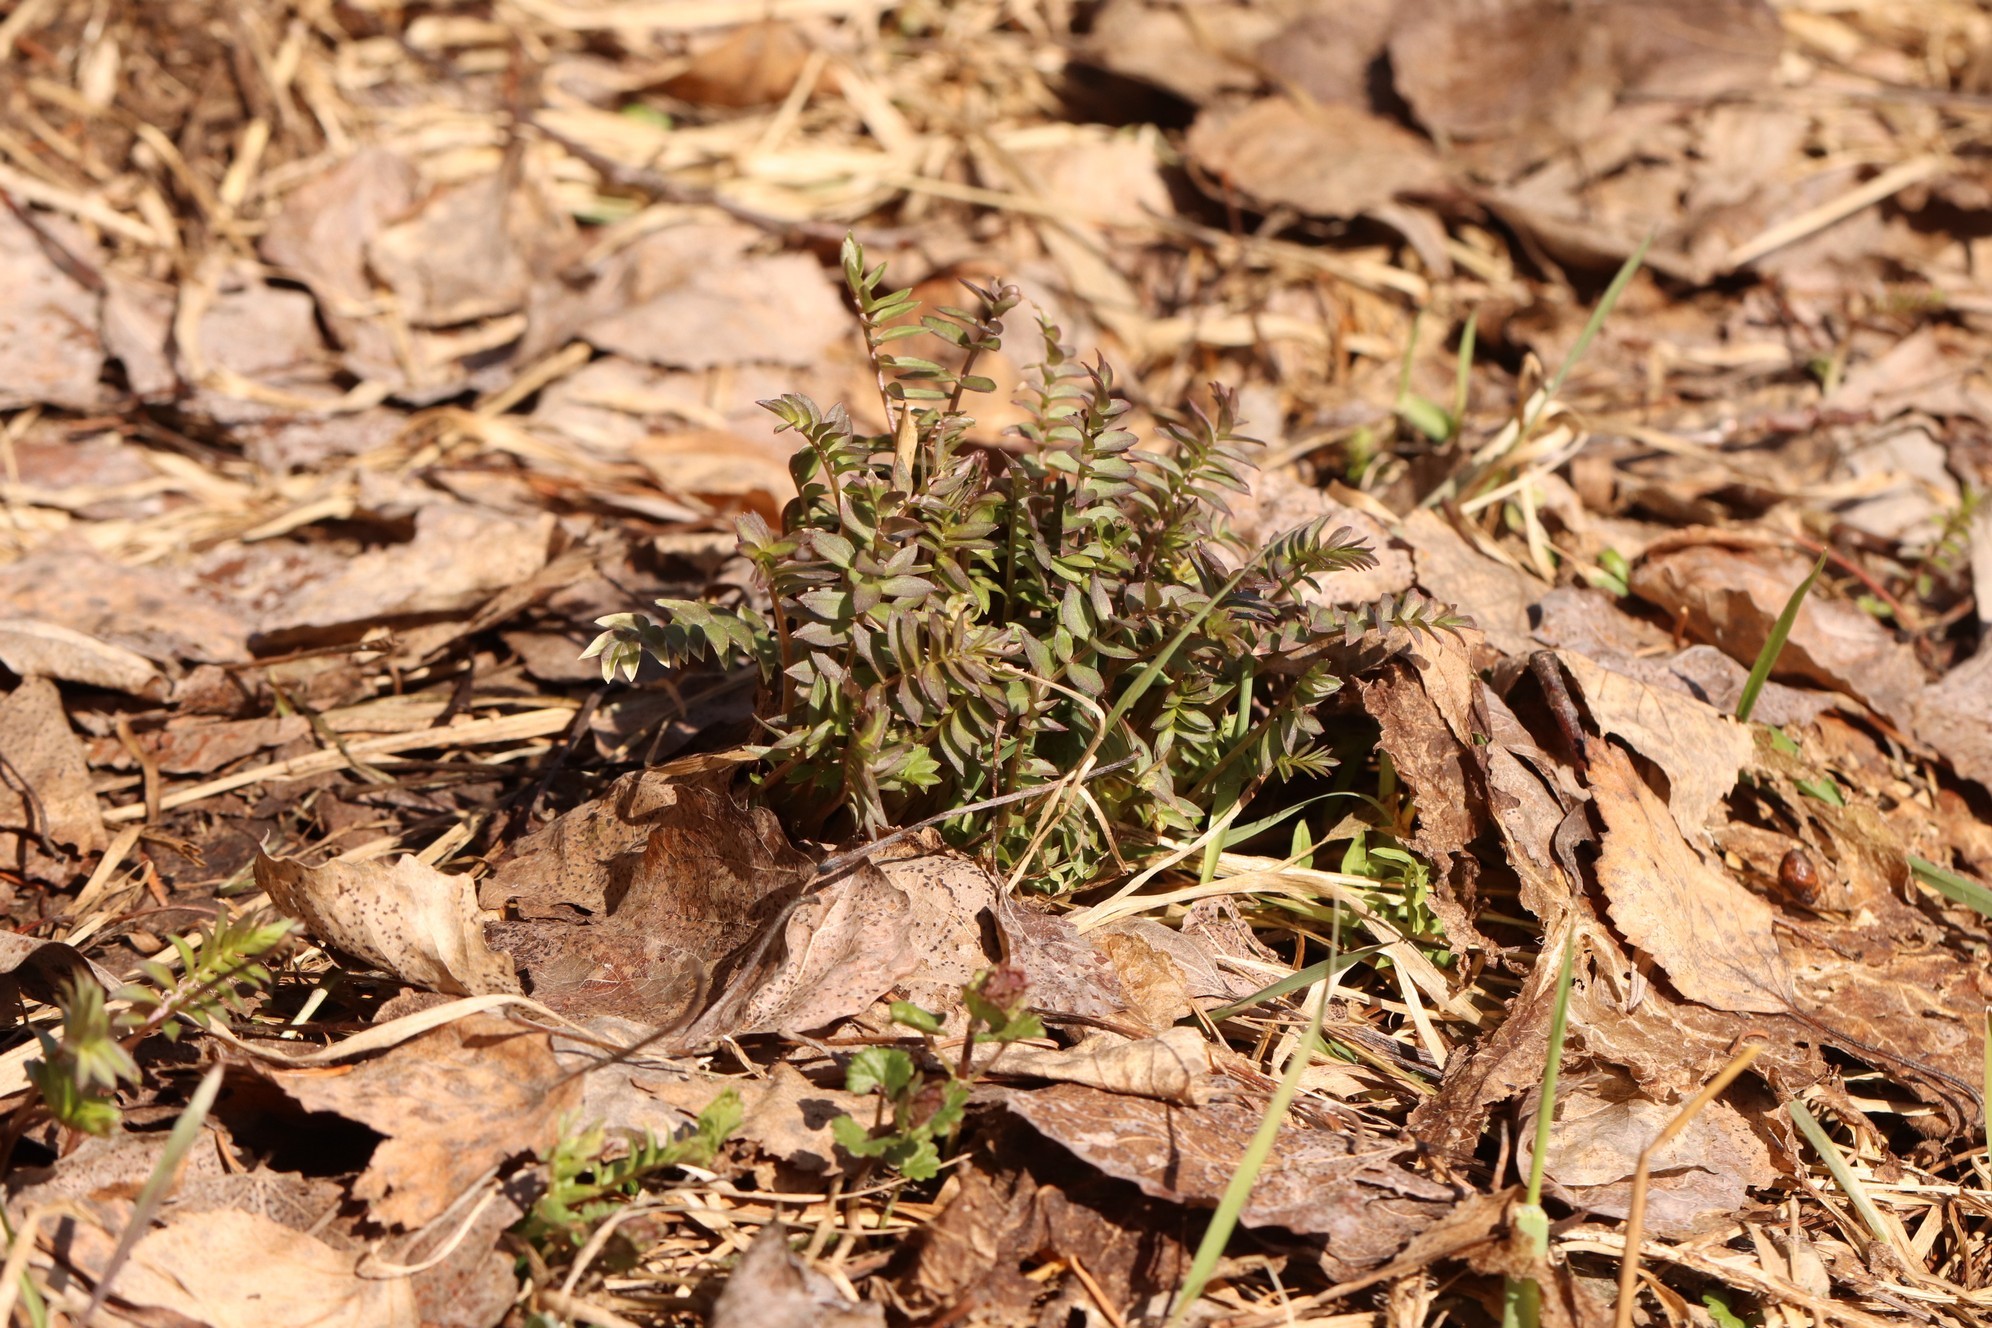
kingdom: Plantae
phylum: Tracheophyta
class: Magnoliopsida
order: Ericales
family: Polemoniaceae
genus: Polemonium
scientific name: Polemonium caeruleum
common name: Jacob's-ladder
